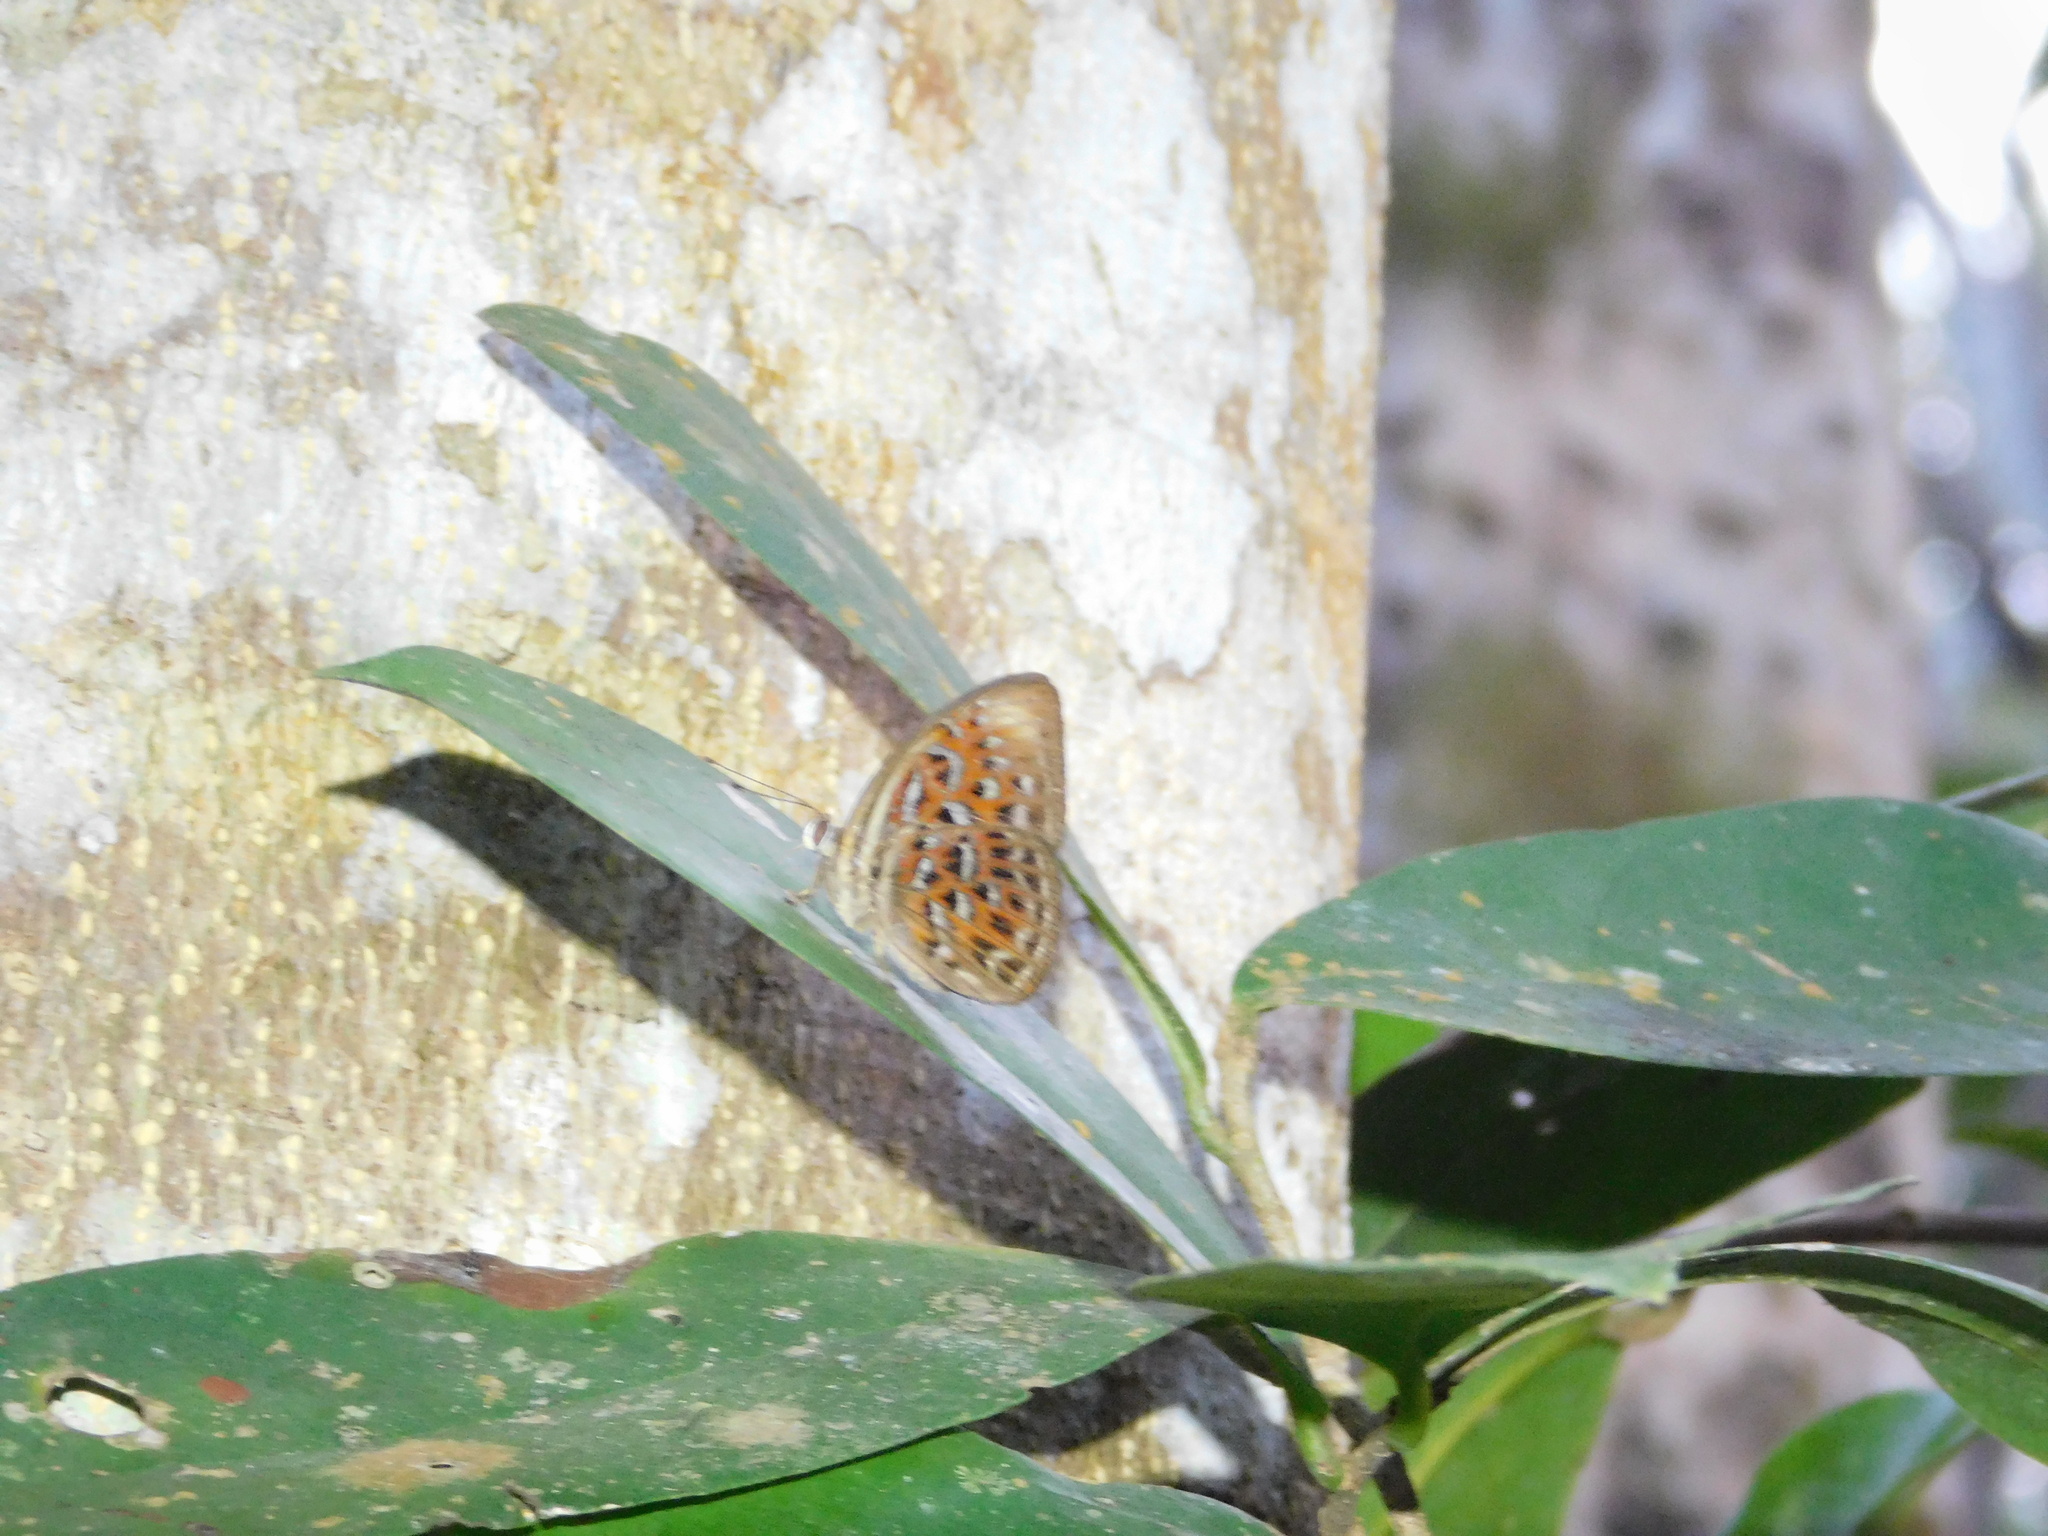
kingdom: Animalia
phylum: Arthropoda
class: Insecta
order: Lepidoptera
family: Erebidae
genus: Dysschema
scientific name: Dysschema
